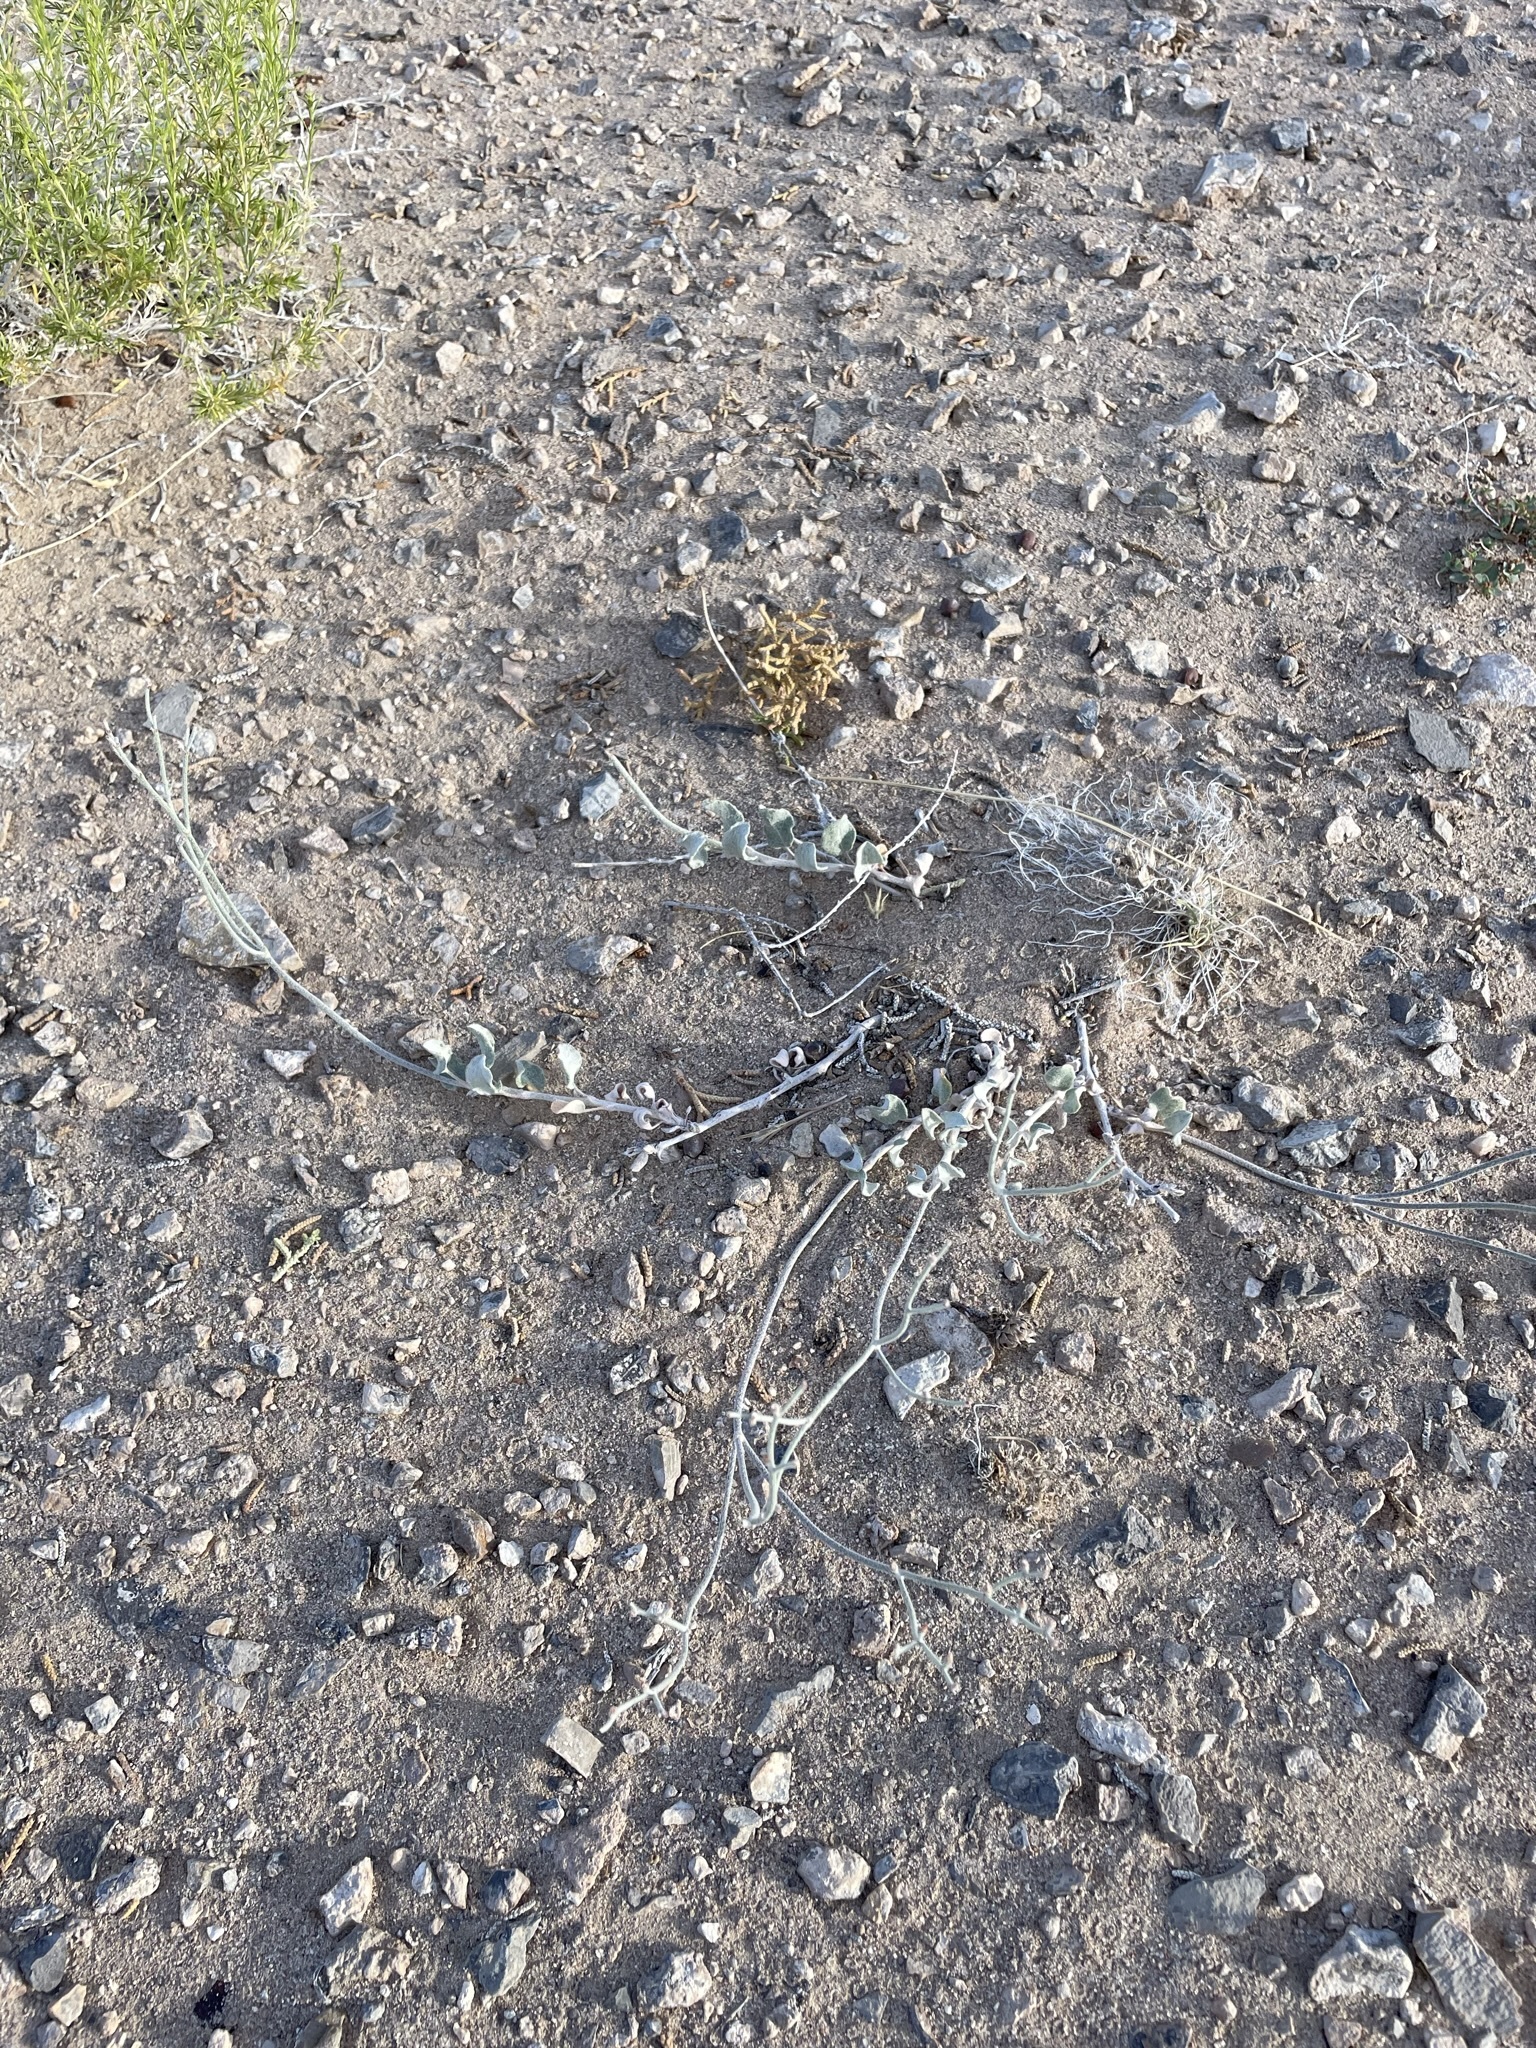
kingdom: Plantae
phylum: Tracheophyta
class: Magnoliopsida
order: Caryophyllales
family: Polygonaceae
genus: Eriogonum
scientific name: Eriogonum nummulare
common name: Kearney wild buckwheat
